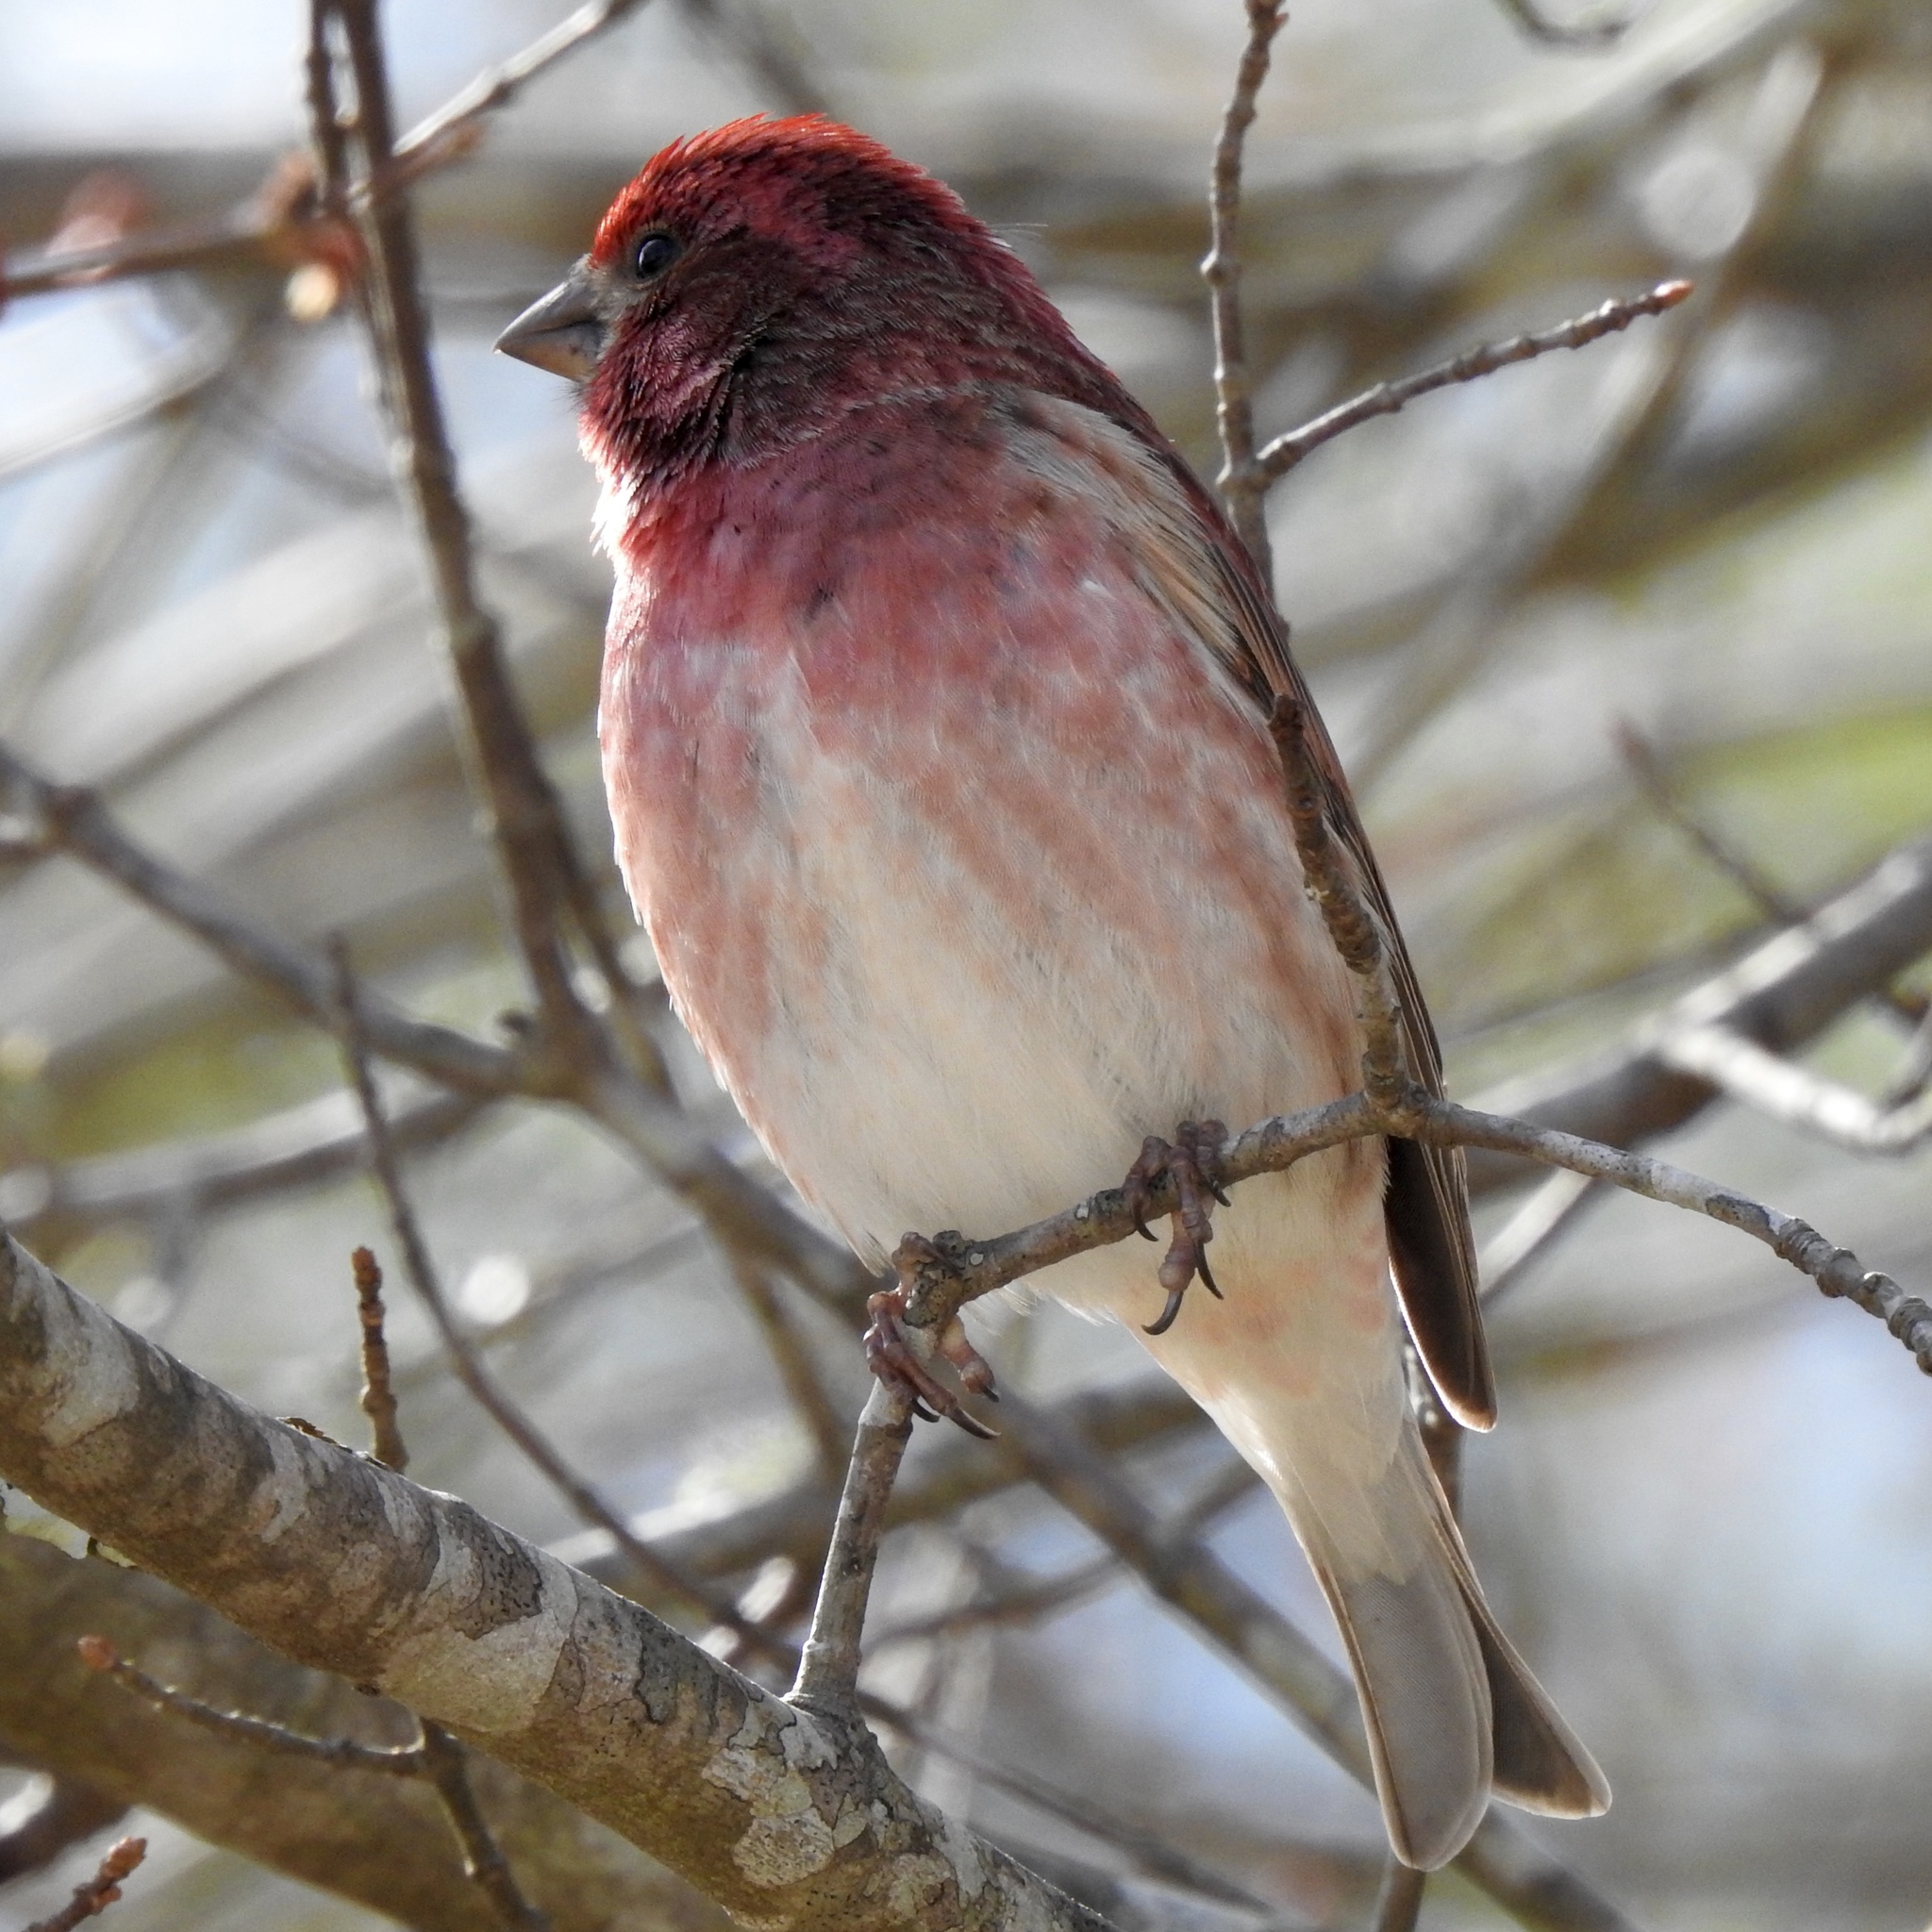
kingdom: Animalia
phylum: Chordata
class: Aves
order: Passeriformes
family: Fringillidae
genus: Haemorhous
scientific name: Haemorhous purpureus
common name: Purple finch
